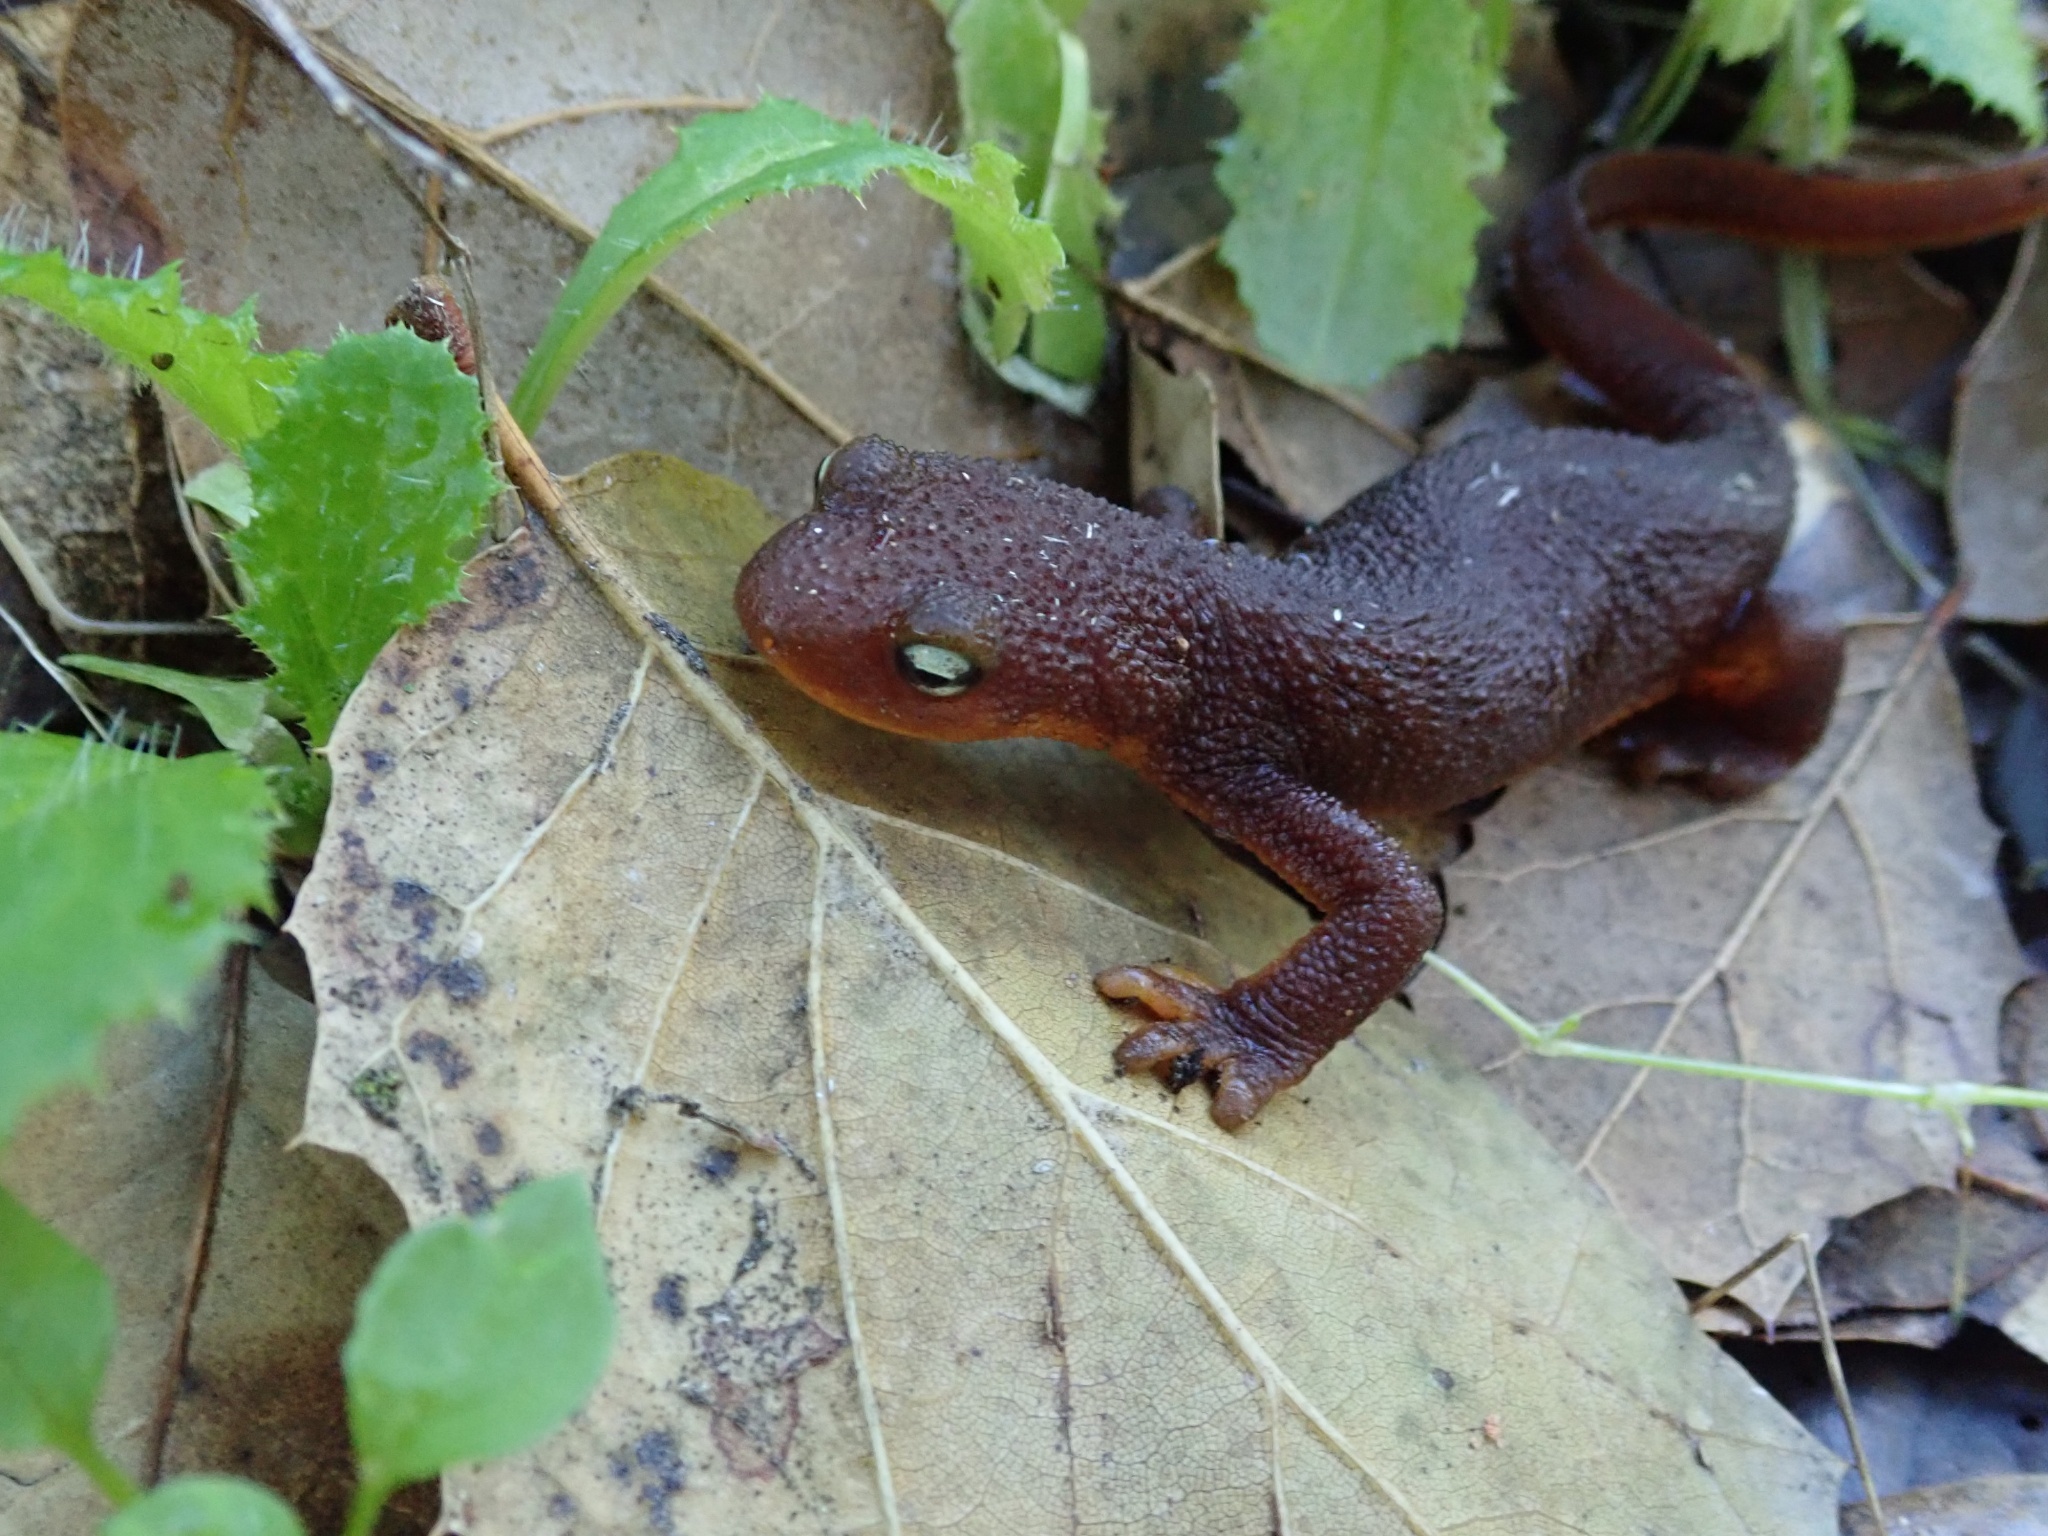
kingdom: Animalia
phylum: Chordata
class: Amphibia
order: Caudata
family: Salamandridae
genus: Taricha
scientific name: Taricha torosa
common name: California newt
